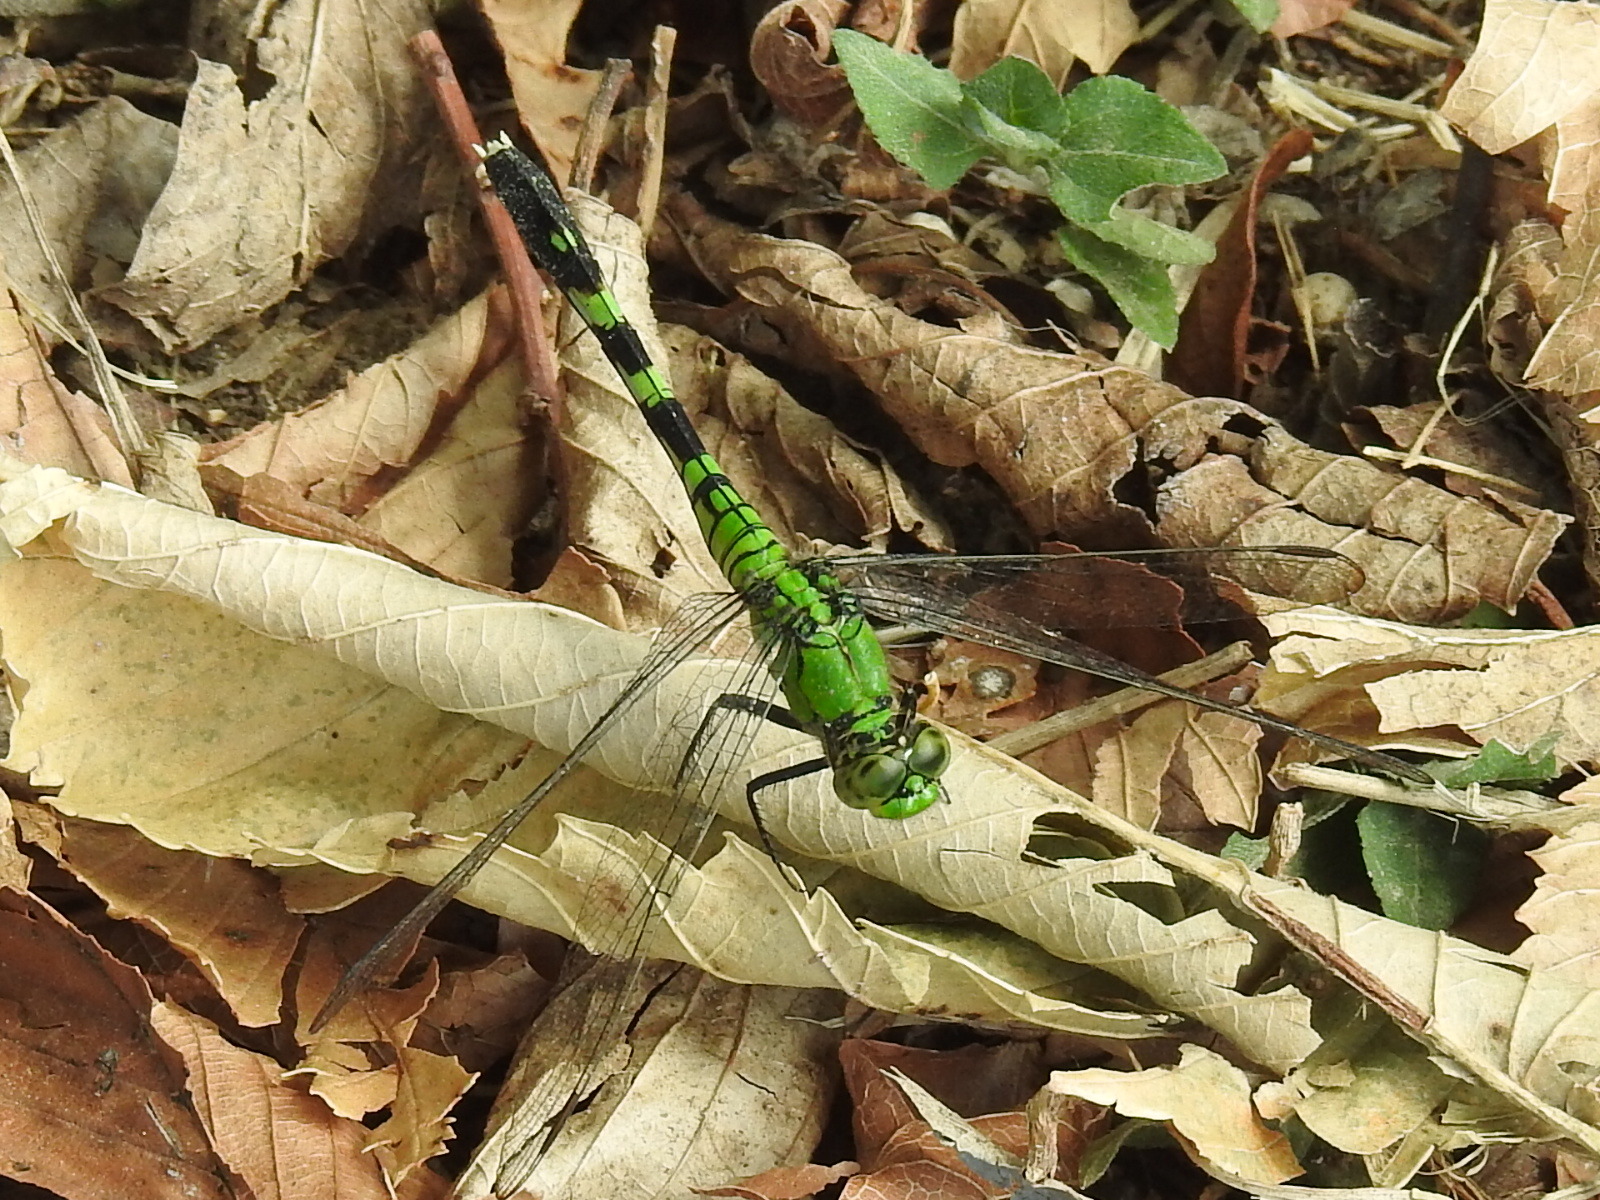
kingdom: Animalia
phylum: Arthropoda
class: Insecta
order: Odonata
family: Libellulidae
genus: Erythemis
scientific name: Erythemis simplicicollis
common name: Eastern pondhawk
